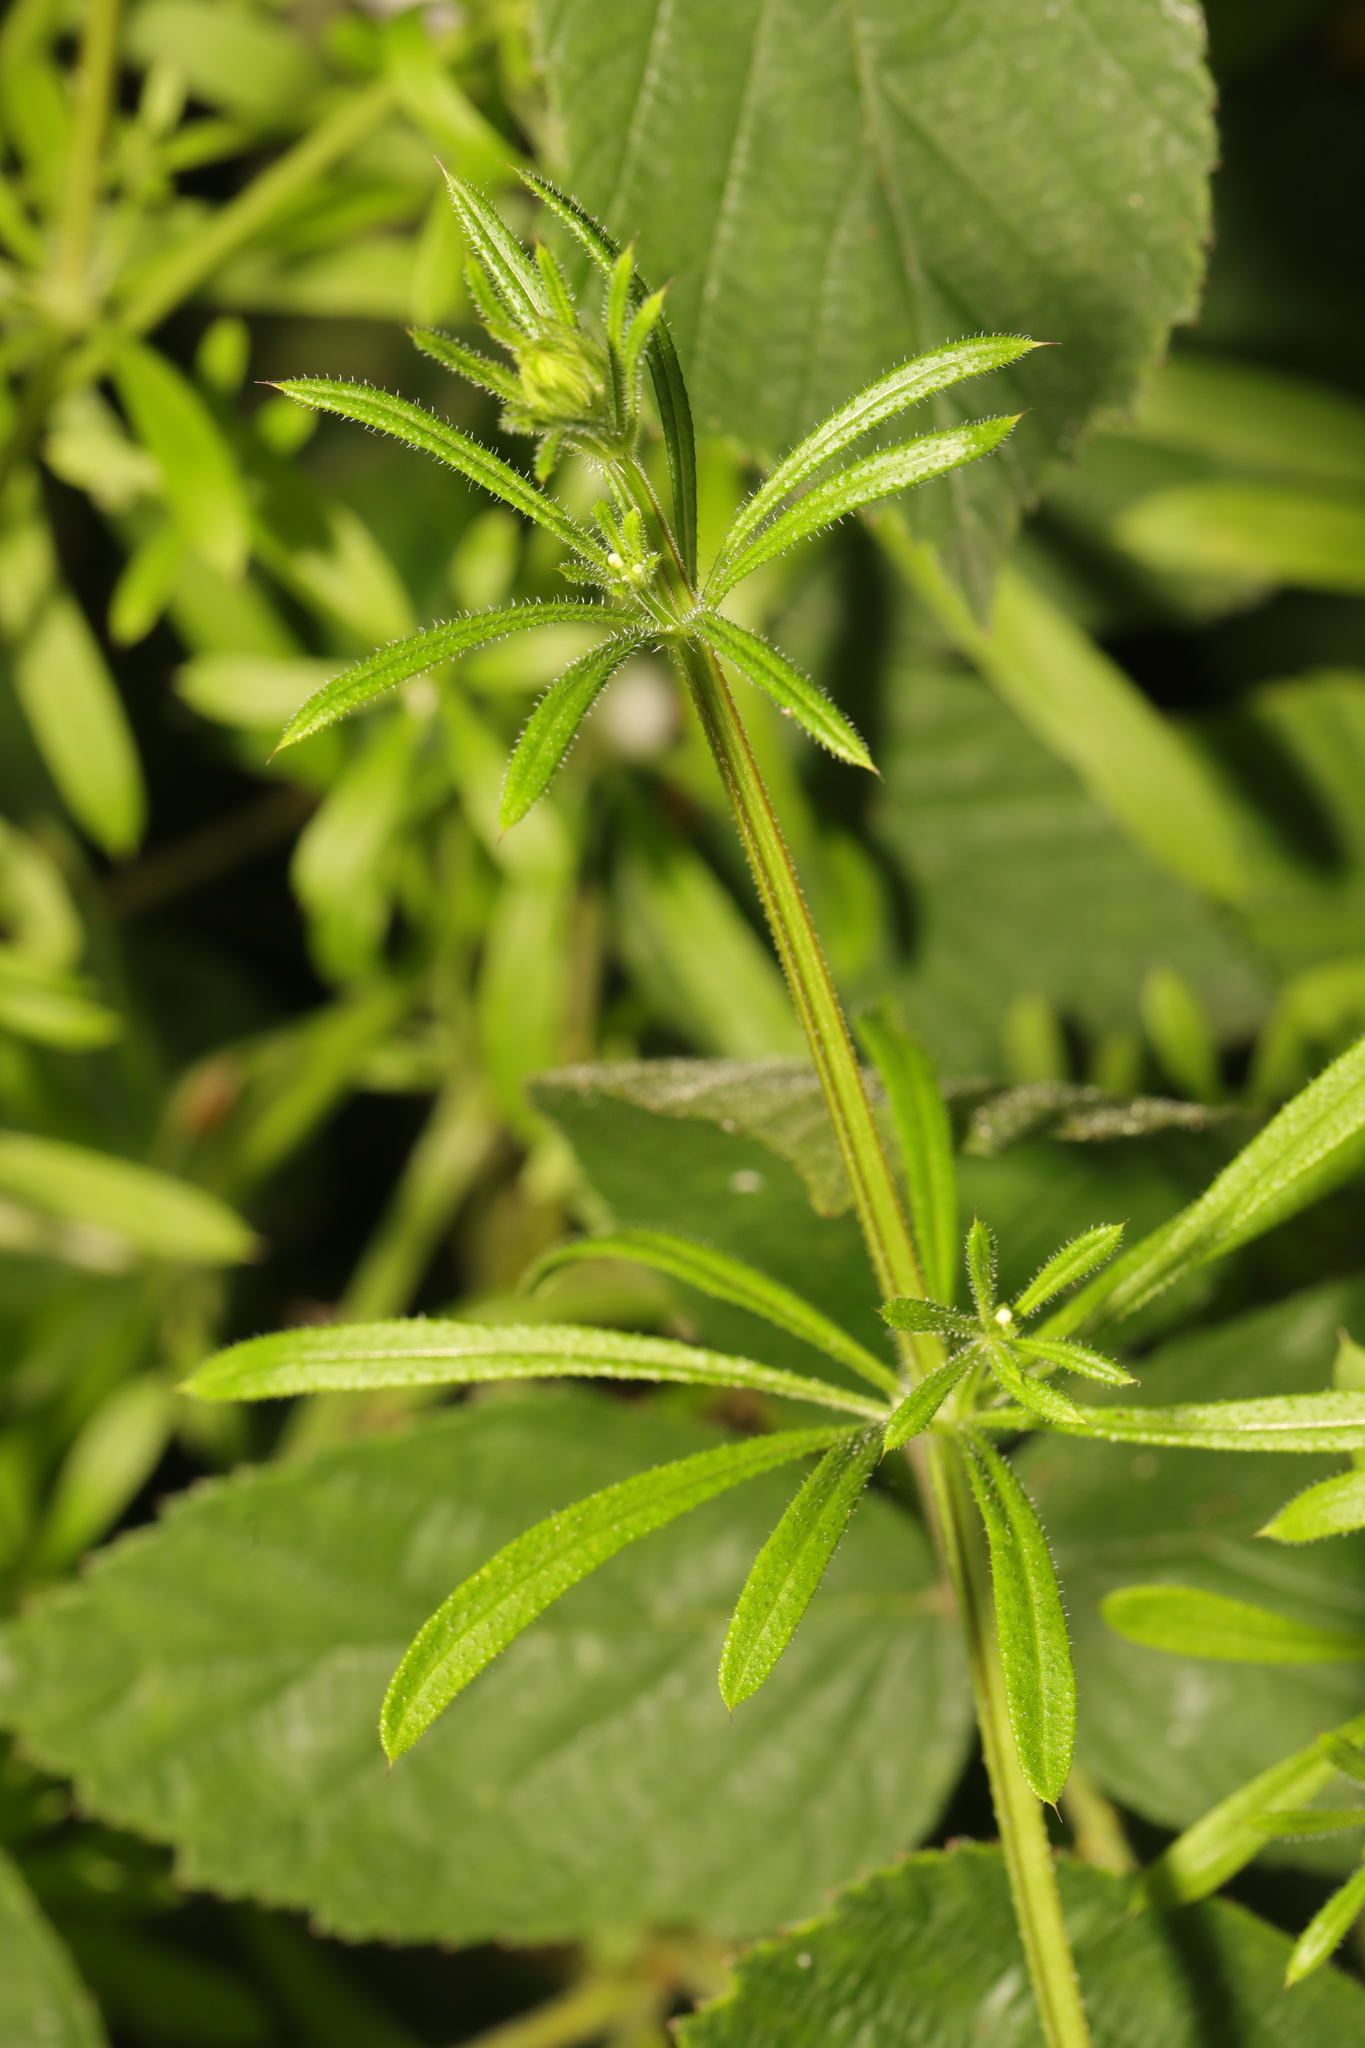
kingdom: Plantae
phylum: Tracheophyta
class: Magnoliopsida
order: Gentianales
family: Rubiaceae
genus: Galium
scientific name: Galium aparine
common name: Cleavers
